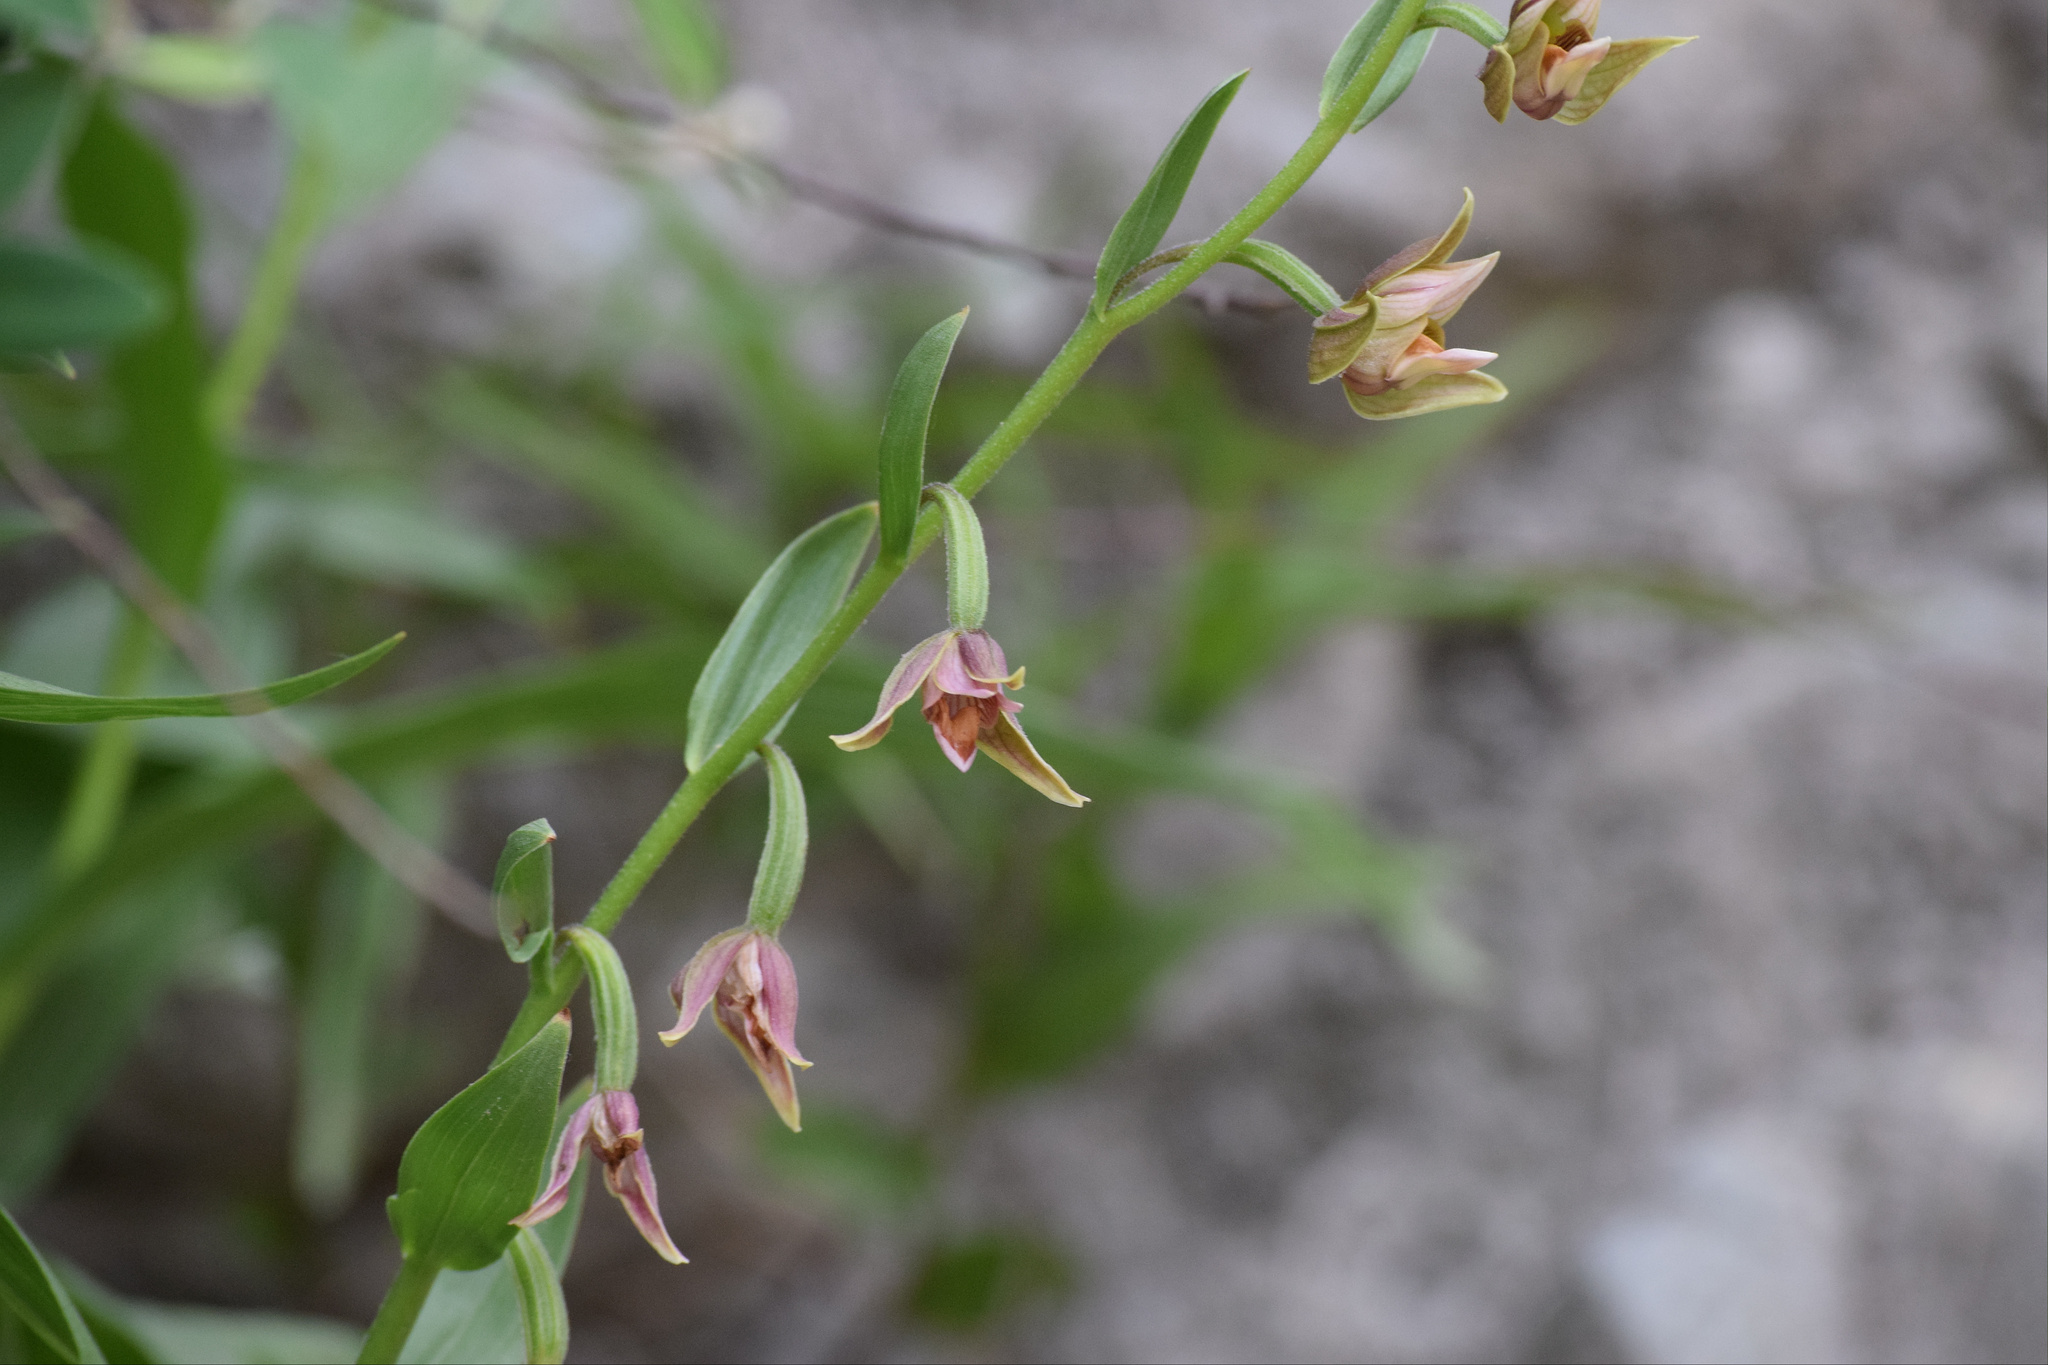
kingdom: Plantae
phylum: Tracheophyta
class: Liliopsida
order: Asparagales
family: Orchidaceae
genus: Epipactis
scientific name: Epipactis gigantea
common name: Chatterbox
